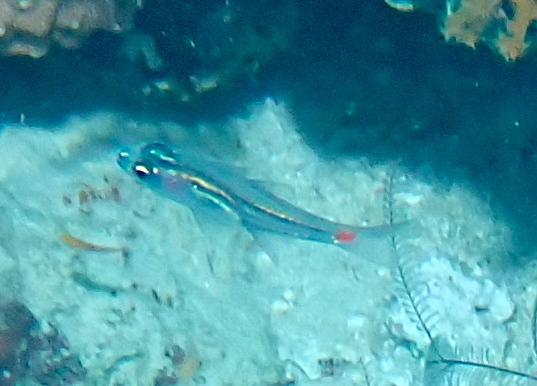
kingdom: Animalia
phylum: Chordata
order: Perciformes
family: Apogonidae
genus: Ostorhinchus
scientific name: Ostorhinchus parvulus
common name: Red-spot cardinalfish
